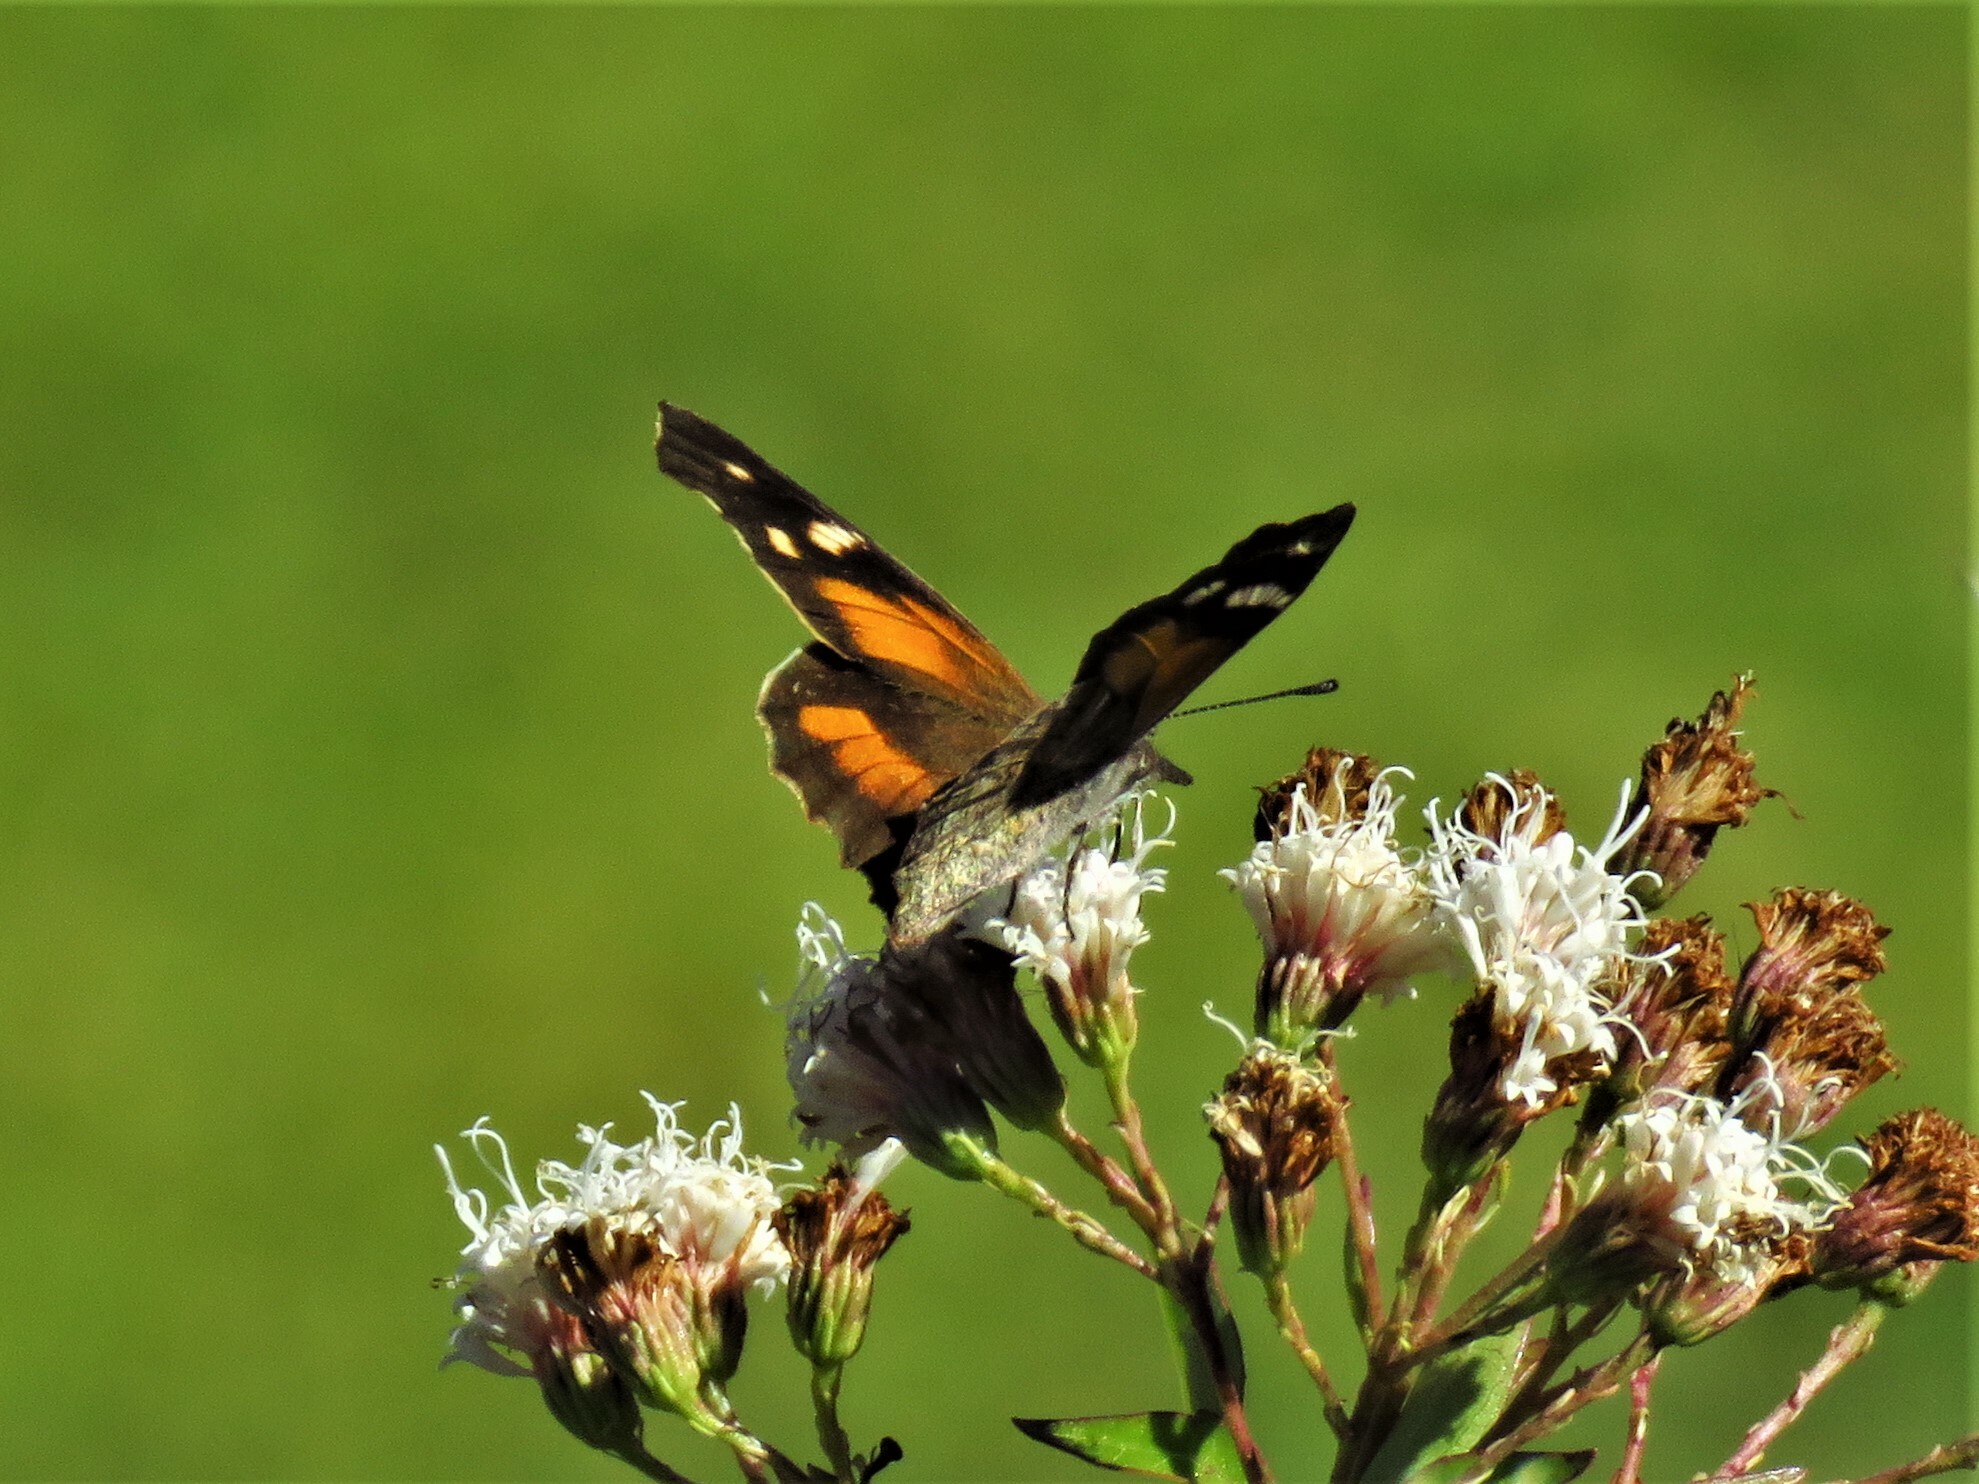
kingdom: Animalia
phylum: Arthropoda
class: Insecta
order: Lepidoptera
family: Nymphalidae
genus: Libytheana
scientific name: Libytheana carinenta
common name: American snout
